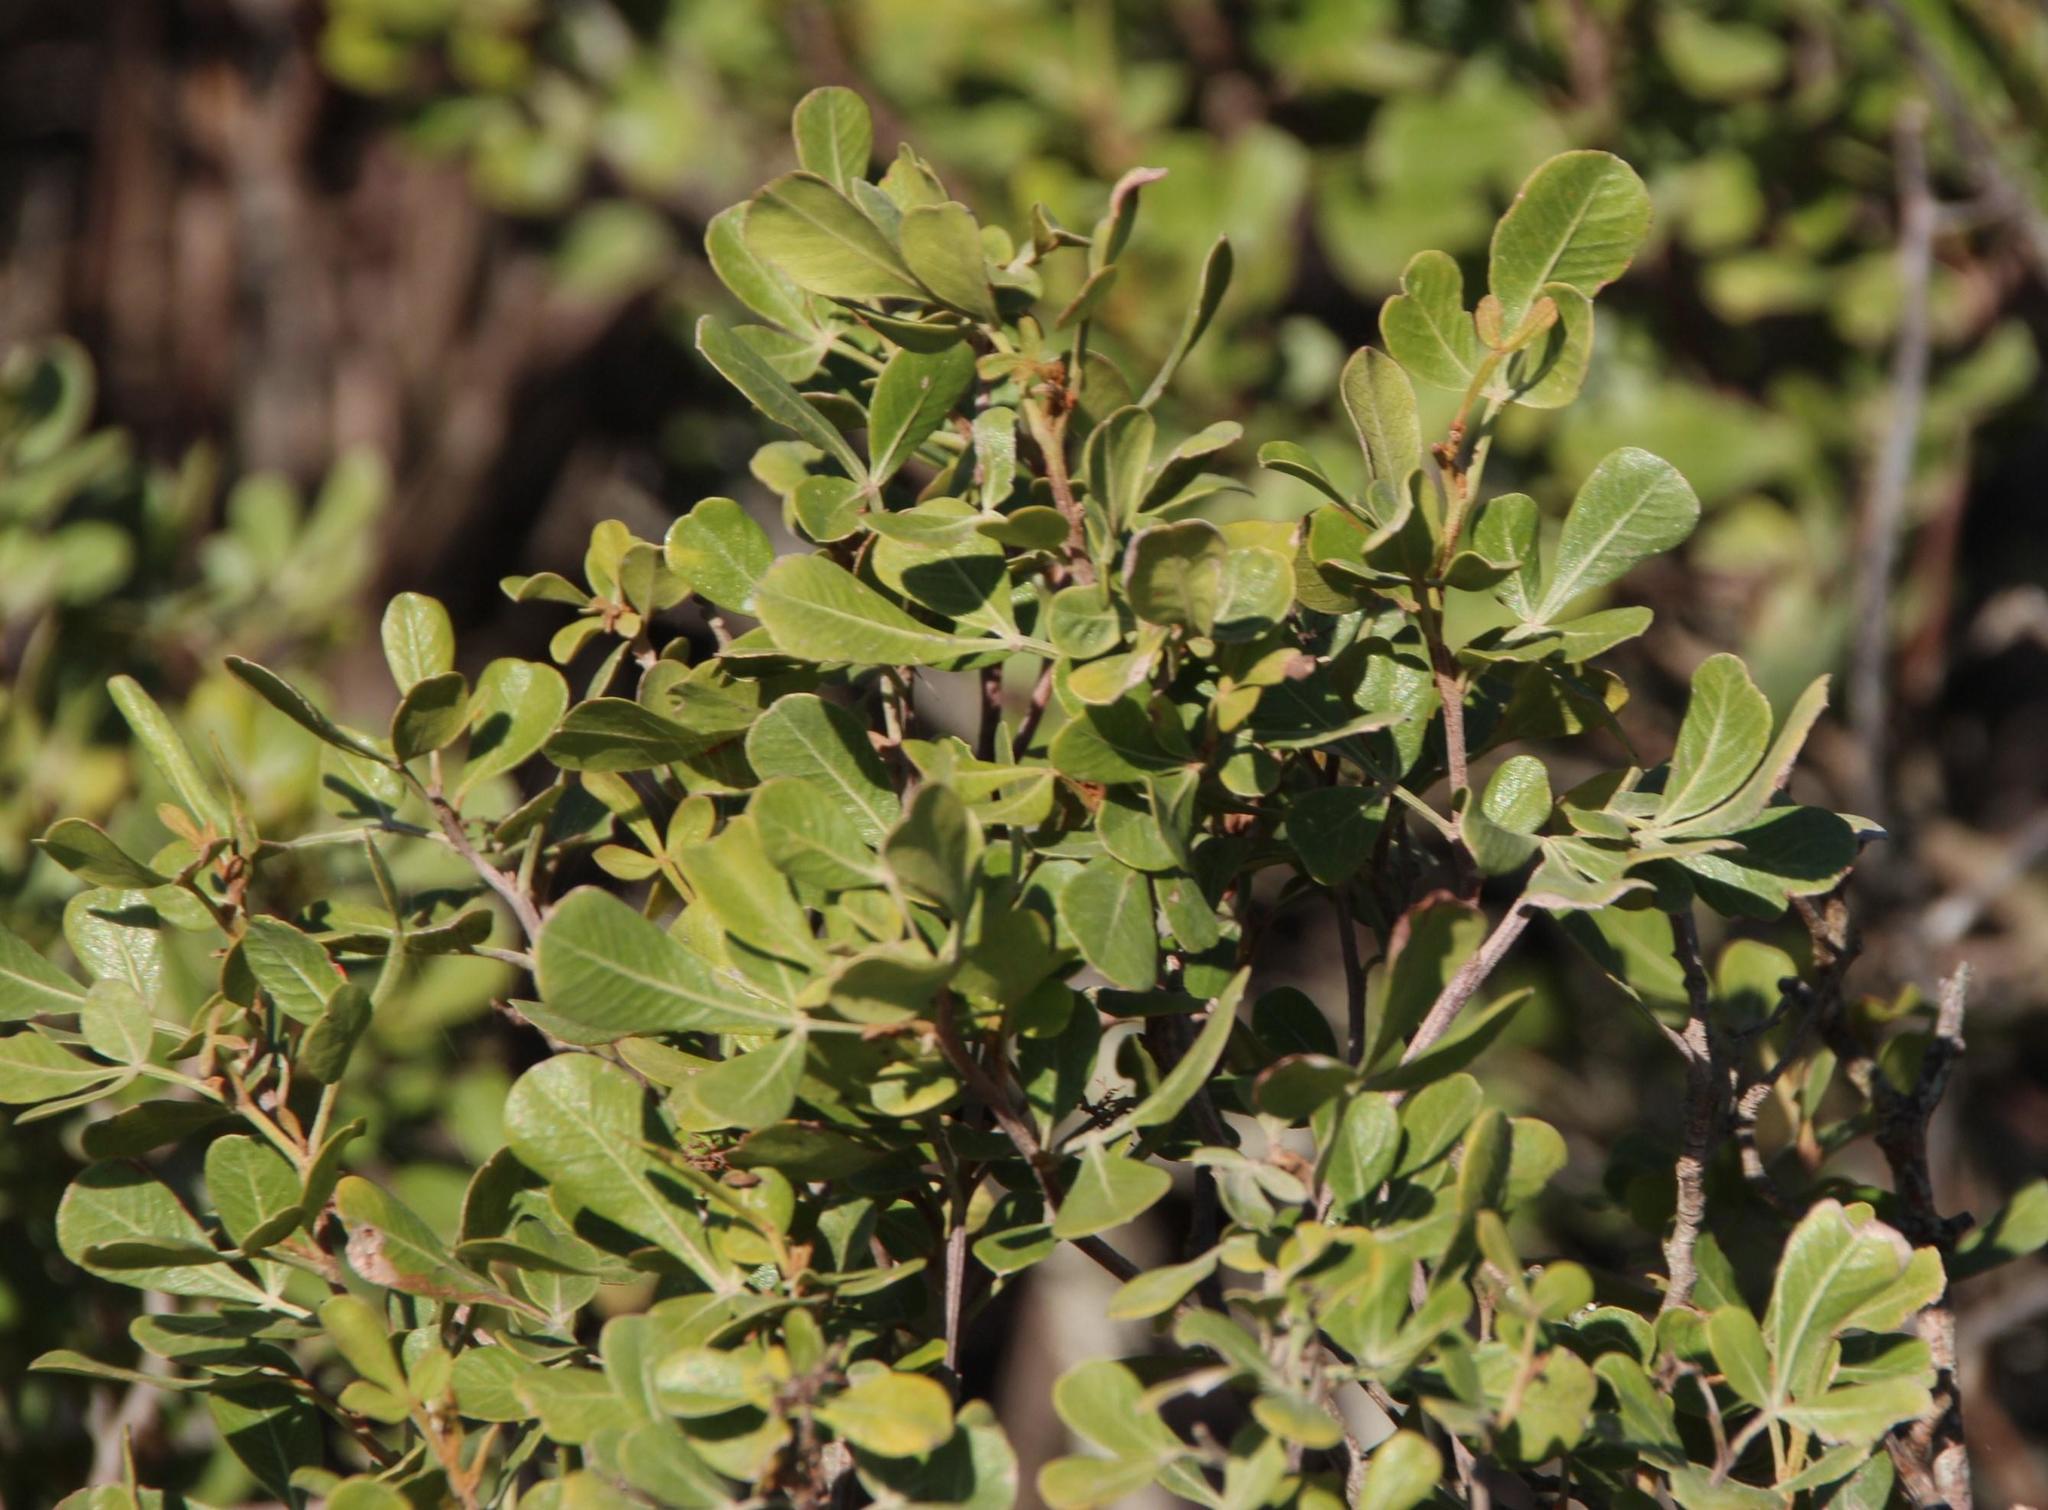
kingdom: Plantae
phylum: Tracheophyta
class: Magnoliopsida
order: Sapindales
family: Anacardiaceae
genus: Searsia
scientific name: Searsia pallens
